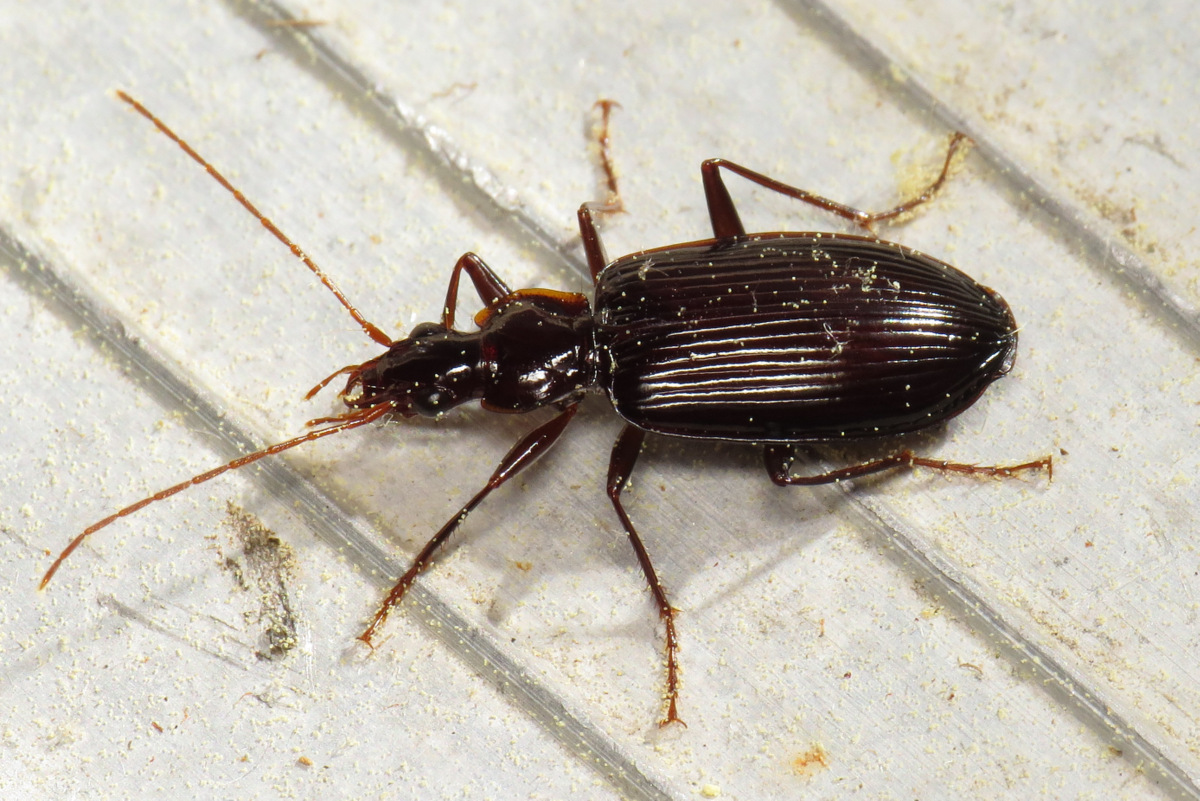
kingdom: Animalia
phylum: Arthropoda
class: Insecta
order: Coleoptera
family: Carabidae
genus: Platynus
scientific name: Platynus tenuicollis
